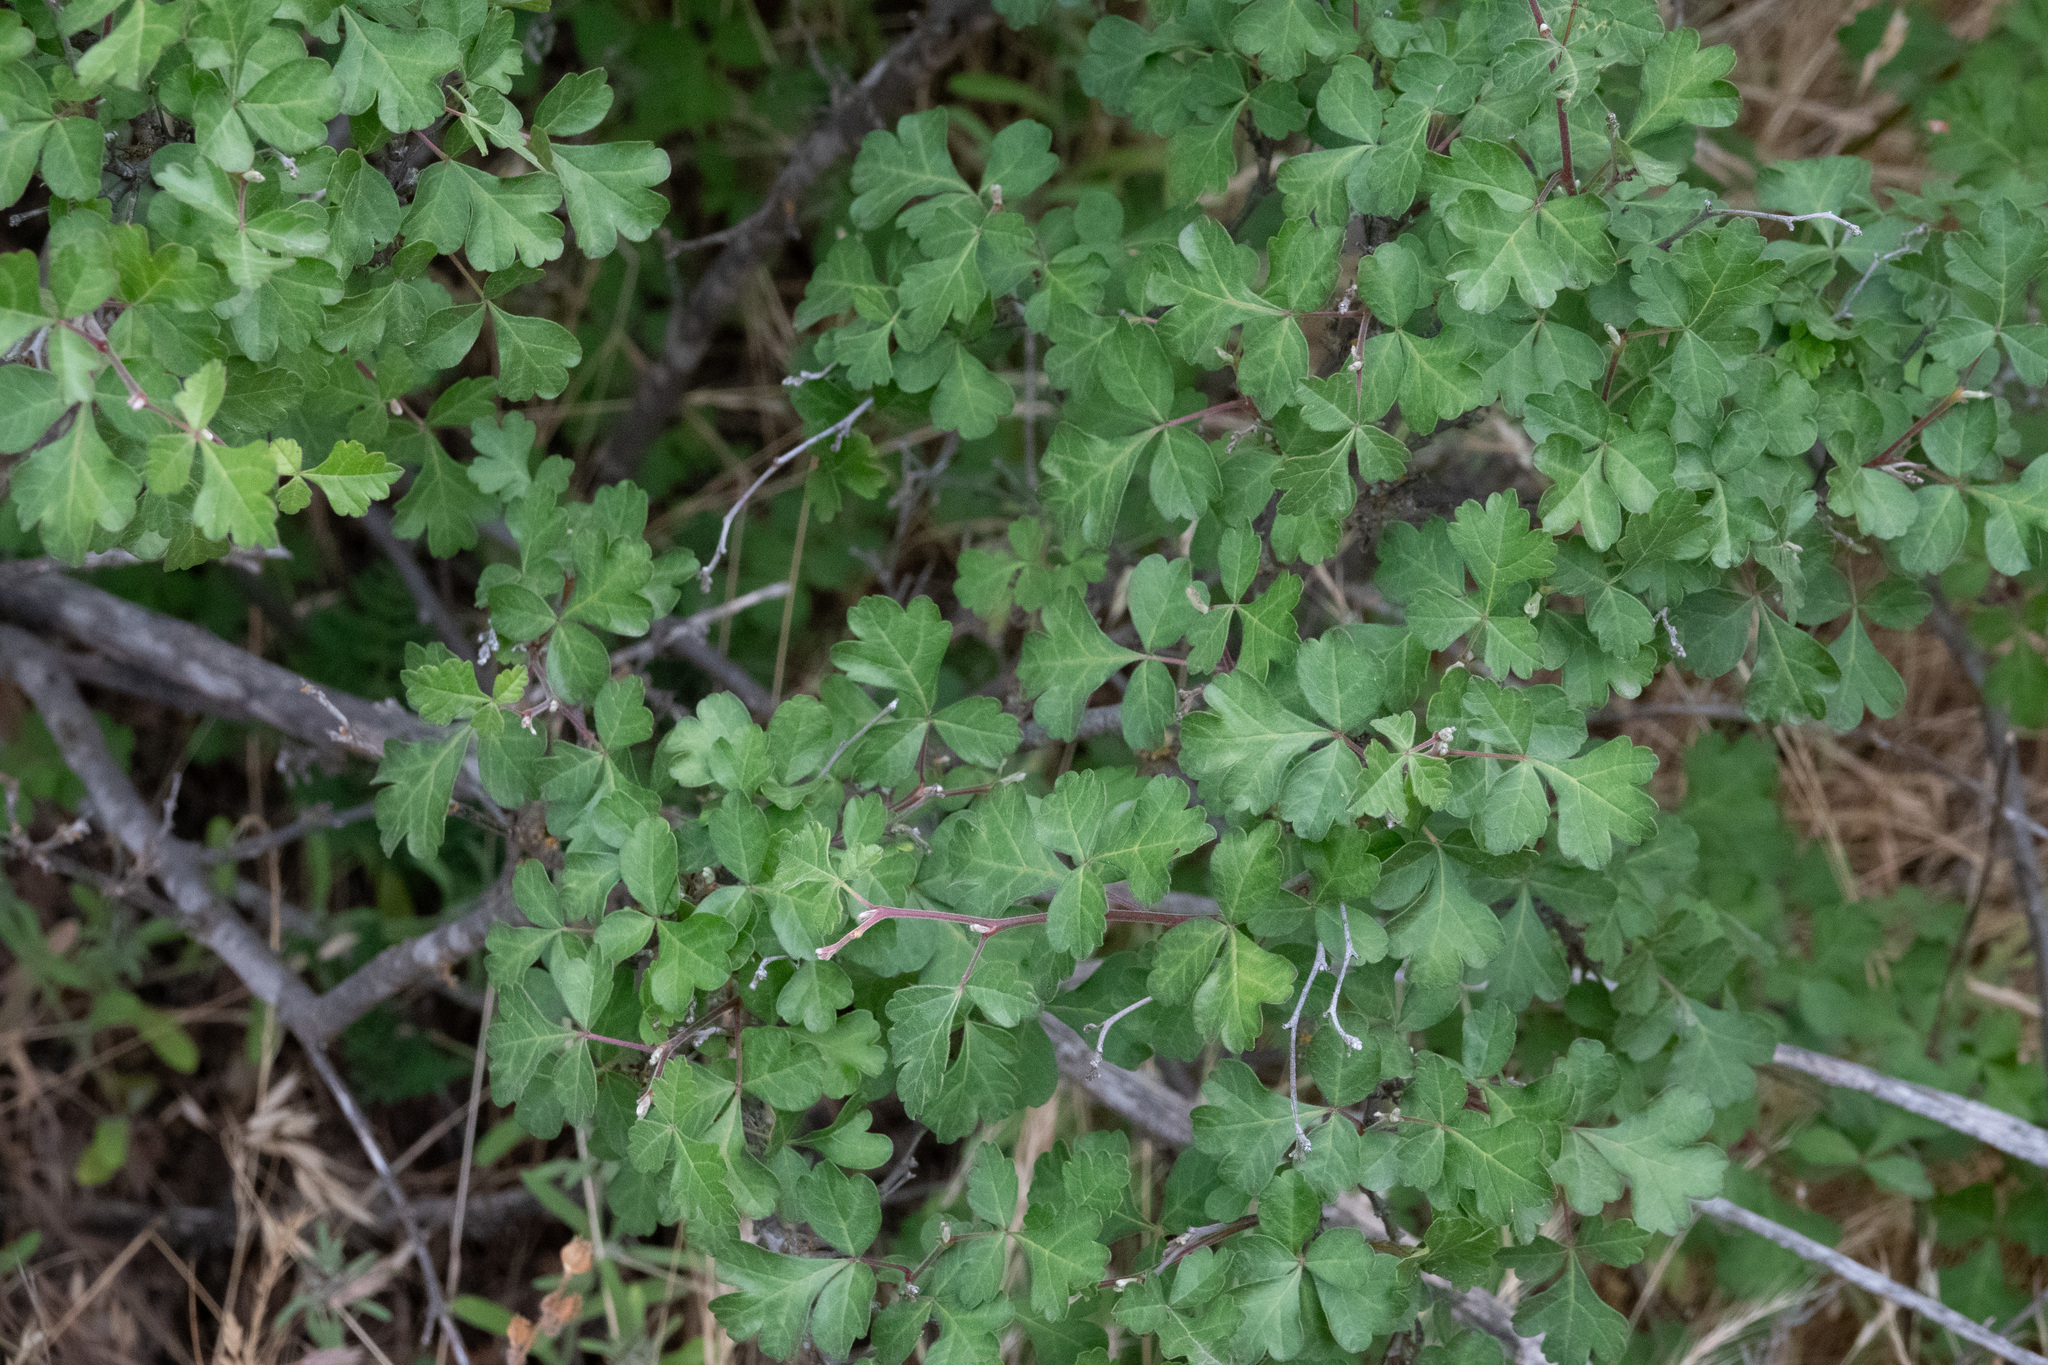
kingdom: Plantae
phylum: Tracheophyta
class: Magnoliopsida
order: Sapindales
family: Anacardiaceae
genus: Rhus
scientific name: Rhus aromatica
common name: Aromatic sumac
